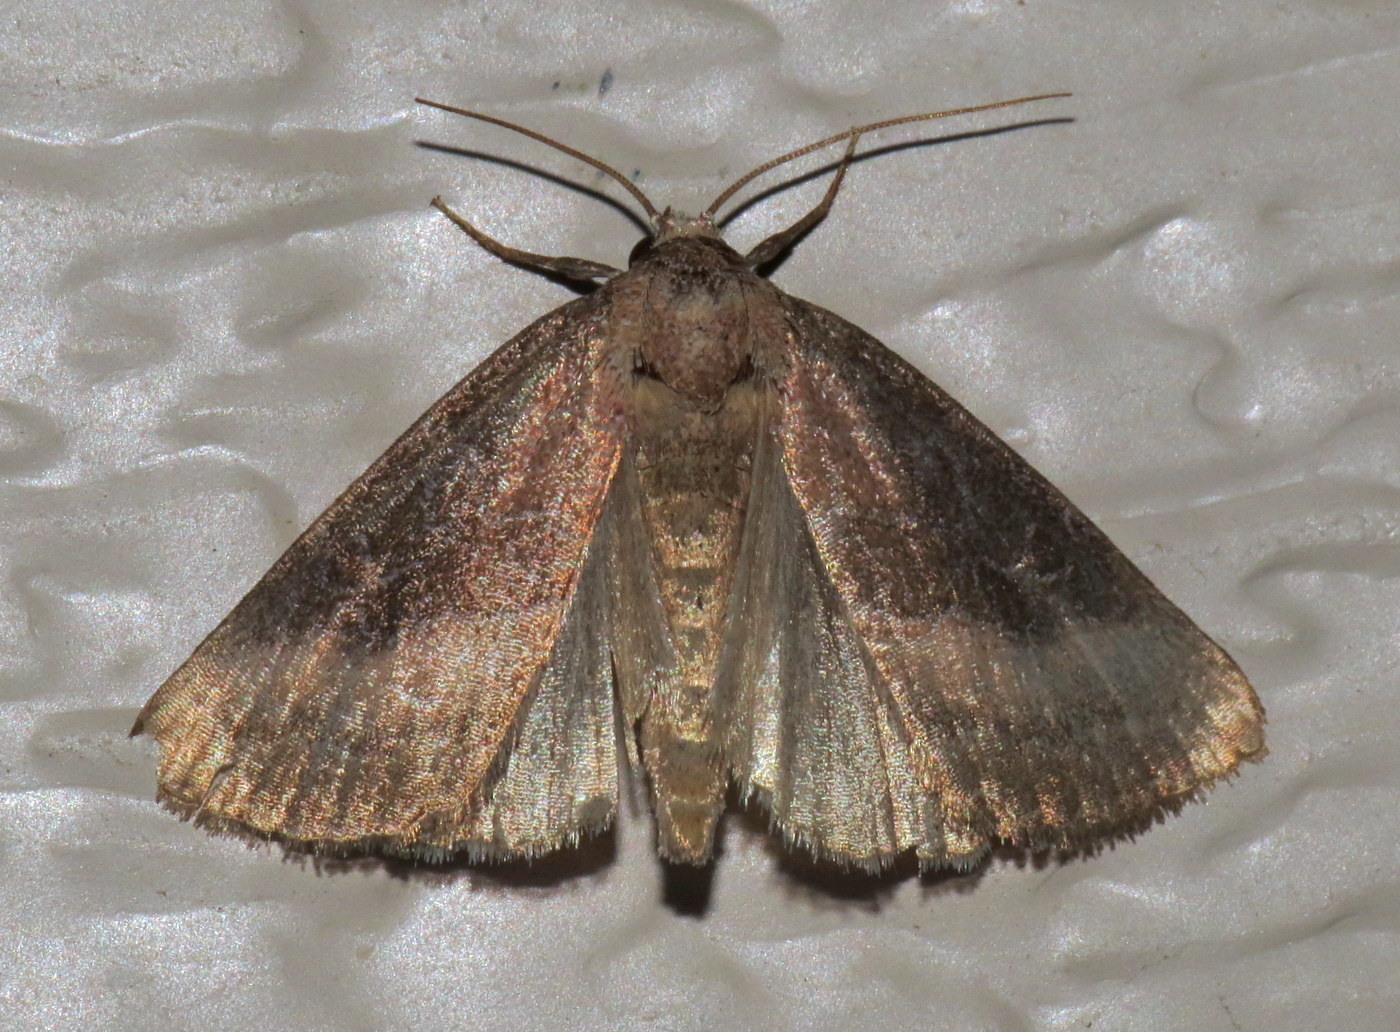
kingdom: Animalia
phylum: Arthropoda
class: Insecta
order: Lepidoptera
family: Noctuidae
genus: Ogdoconta
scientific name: Ogdoconta cinereola
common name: Common pinkband
